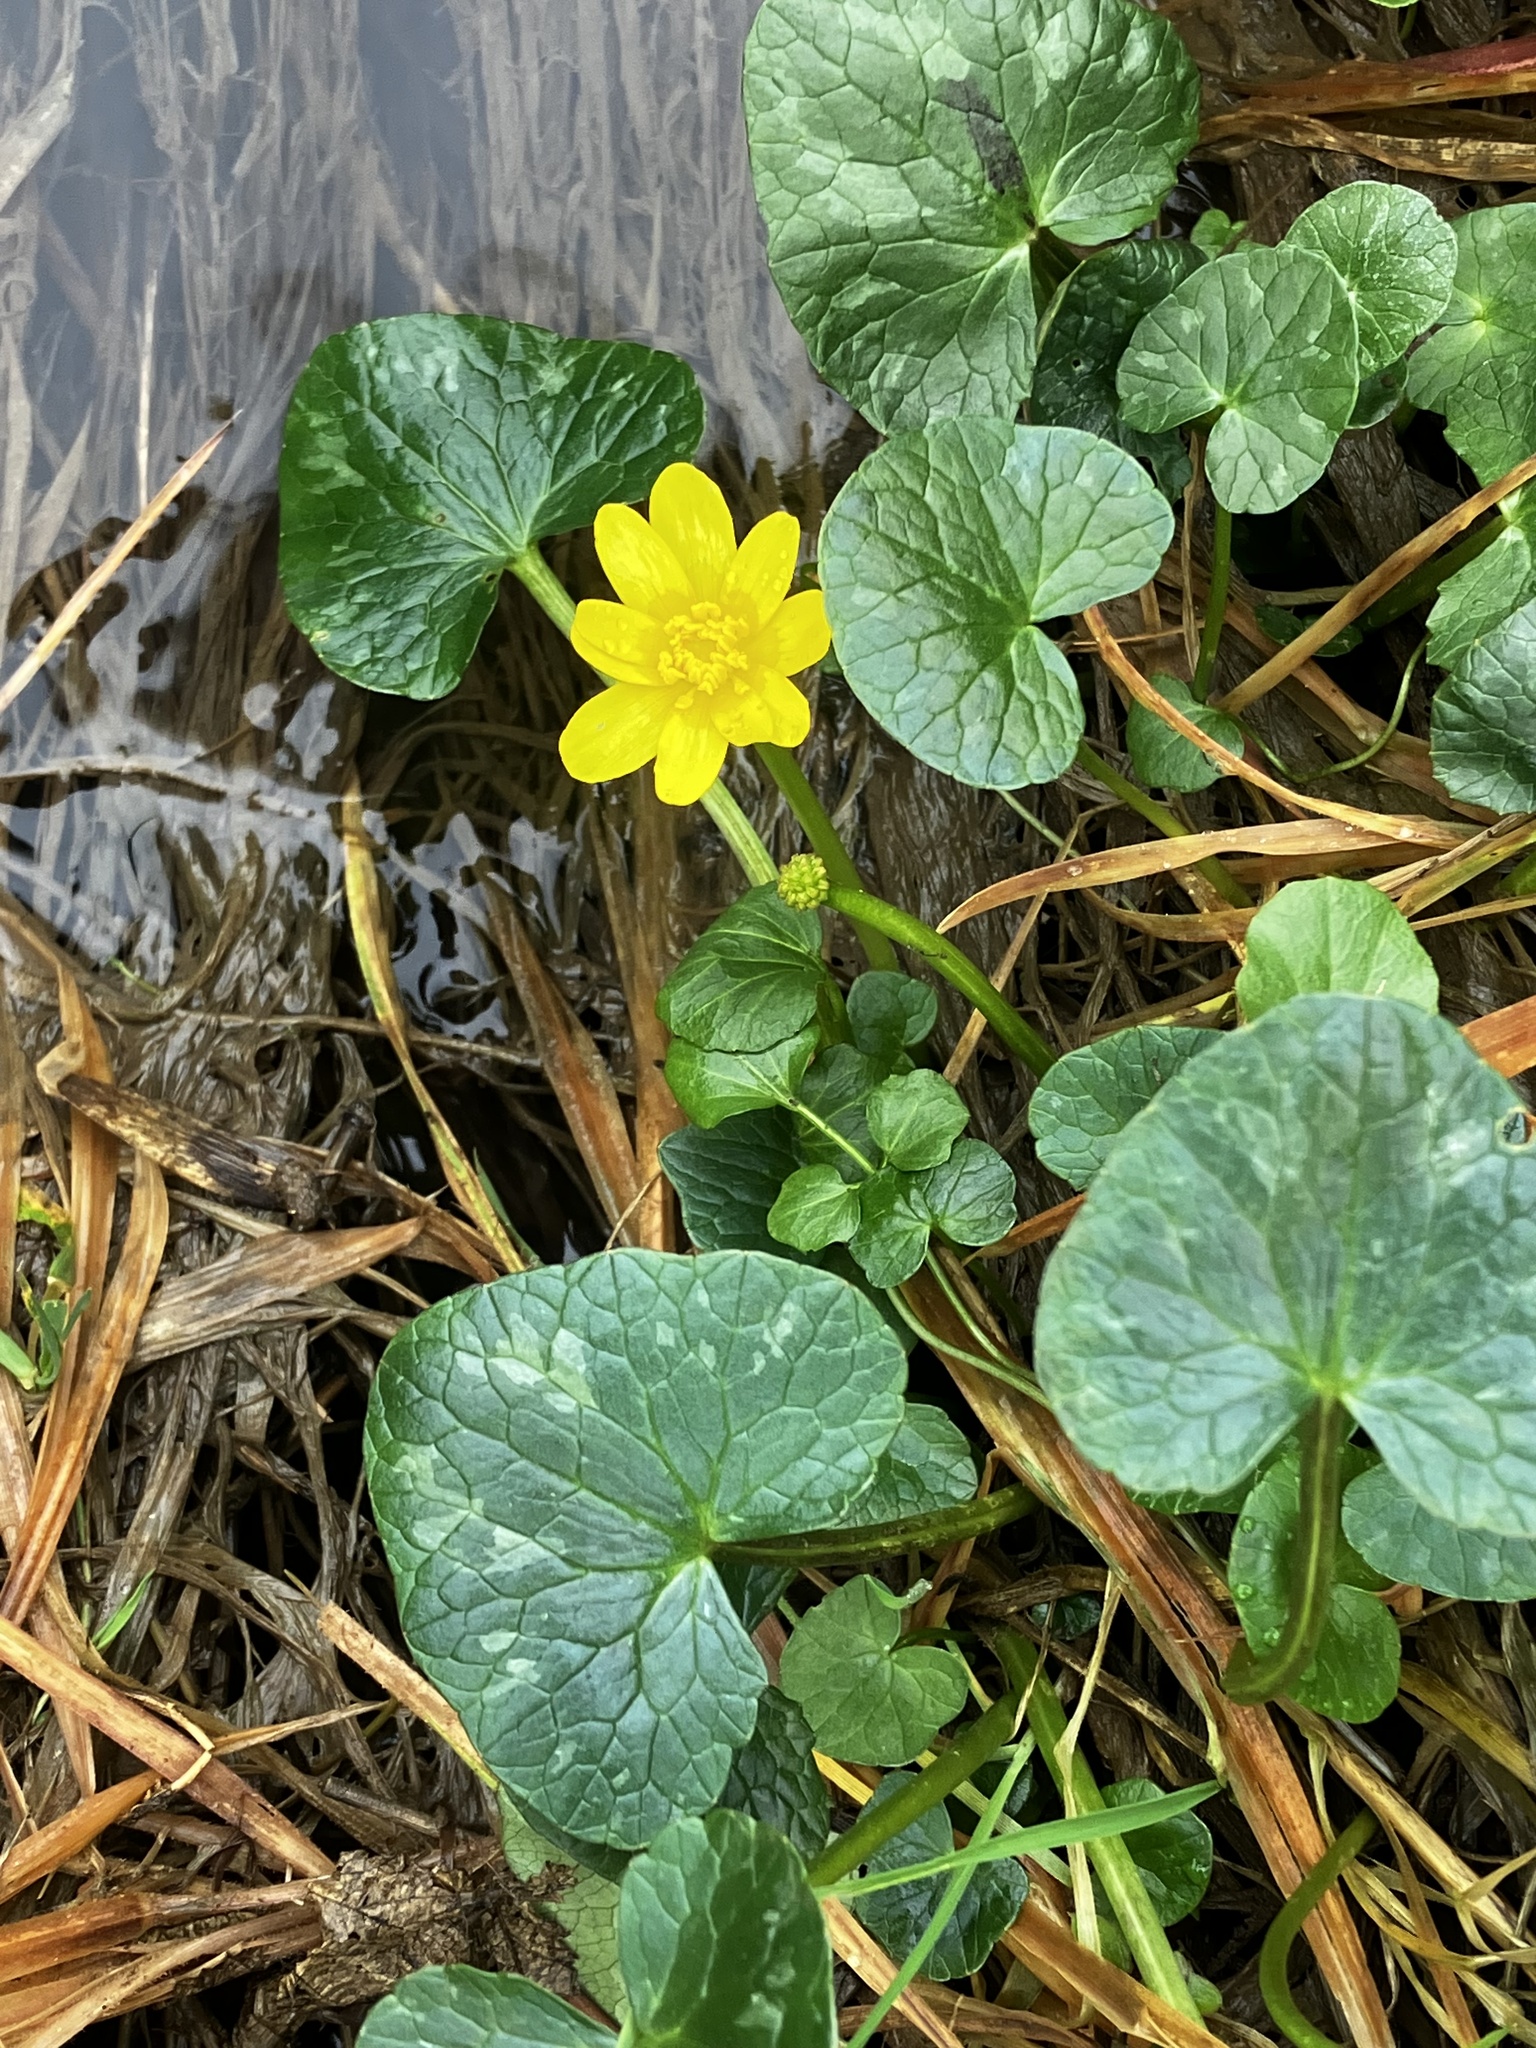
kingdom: Plantae
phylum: Tracheophyta
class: Magnoliopsida
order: Ranunculales
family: Ranunculaceae
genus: Ficaria
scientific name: Ficaria verna
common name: Lesser celandine
